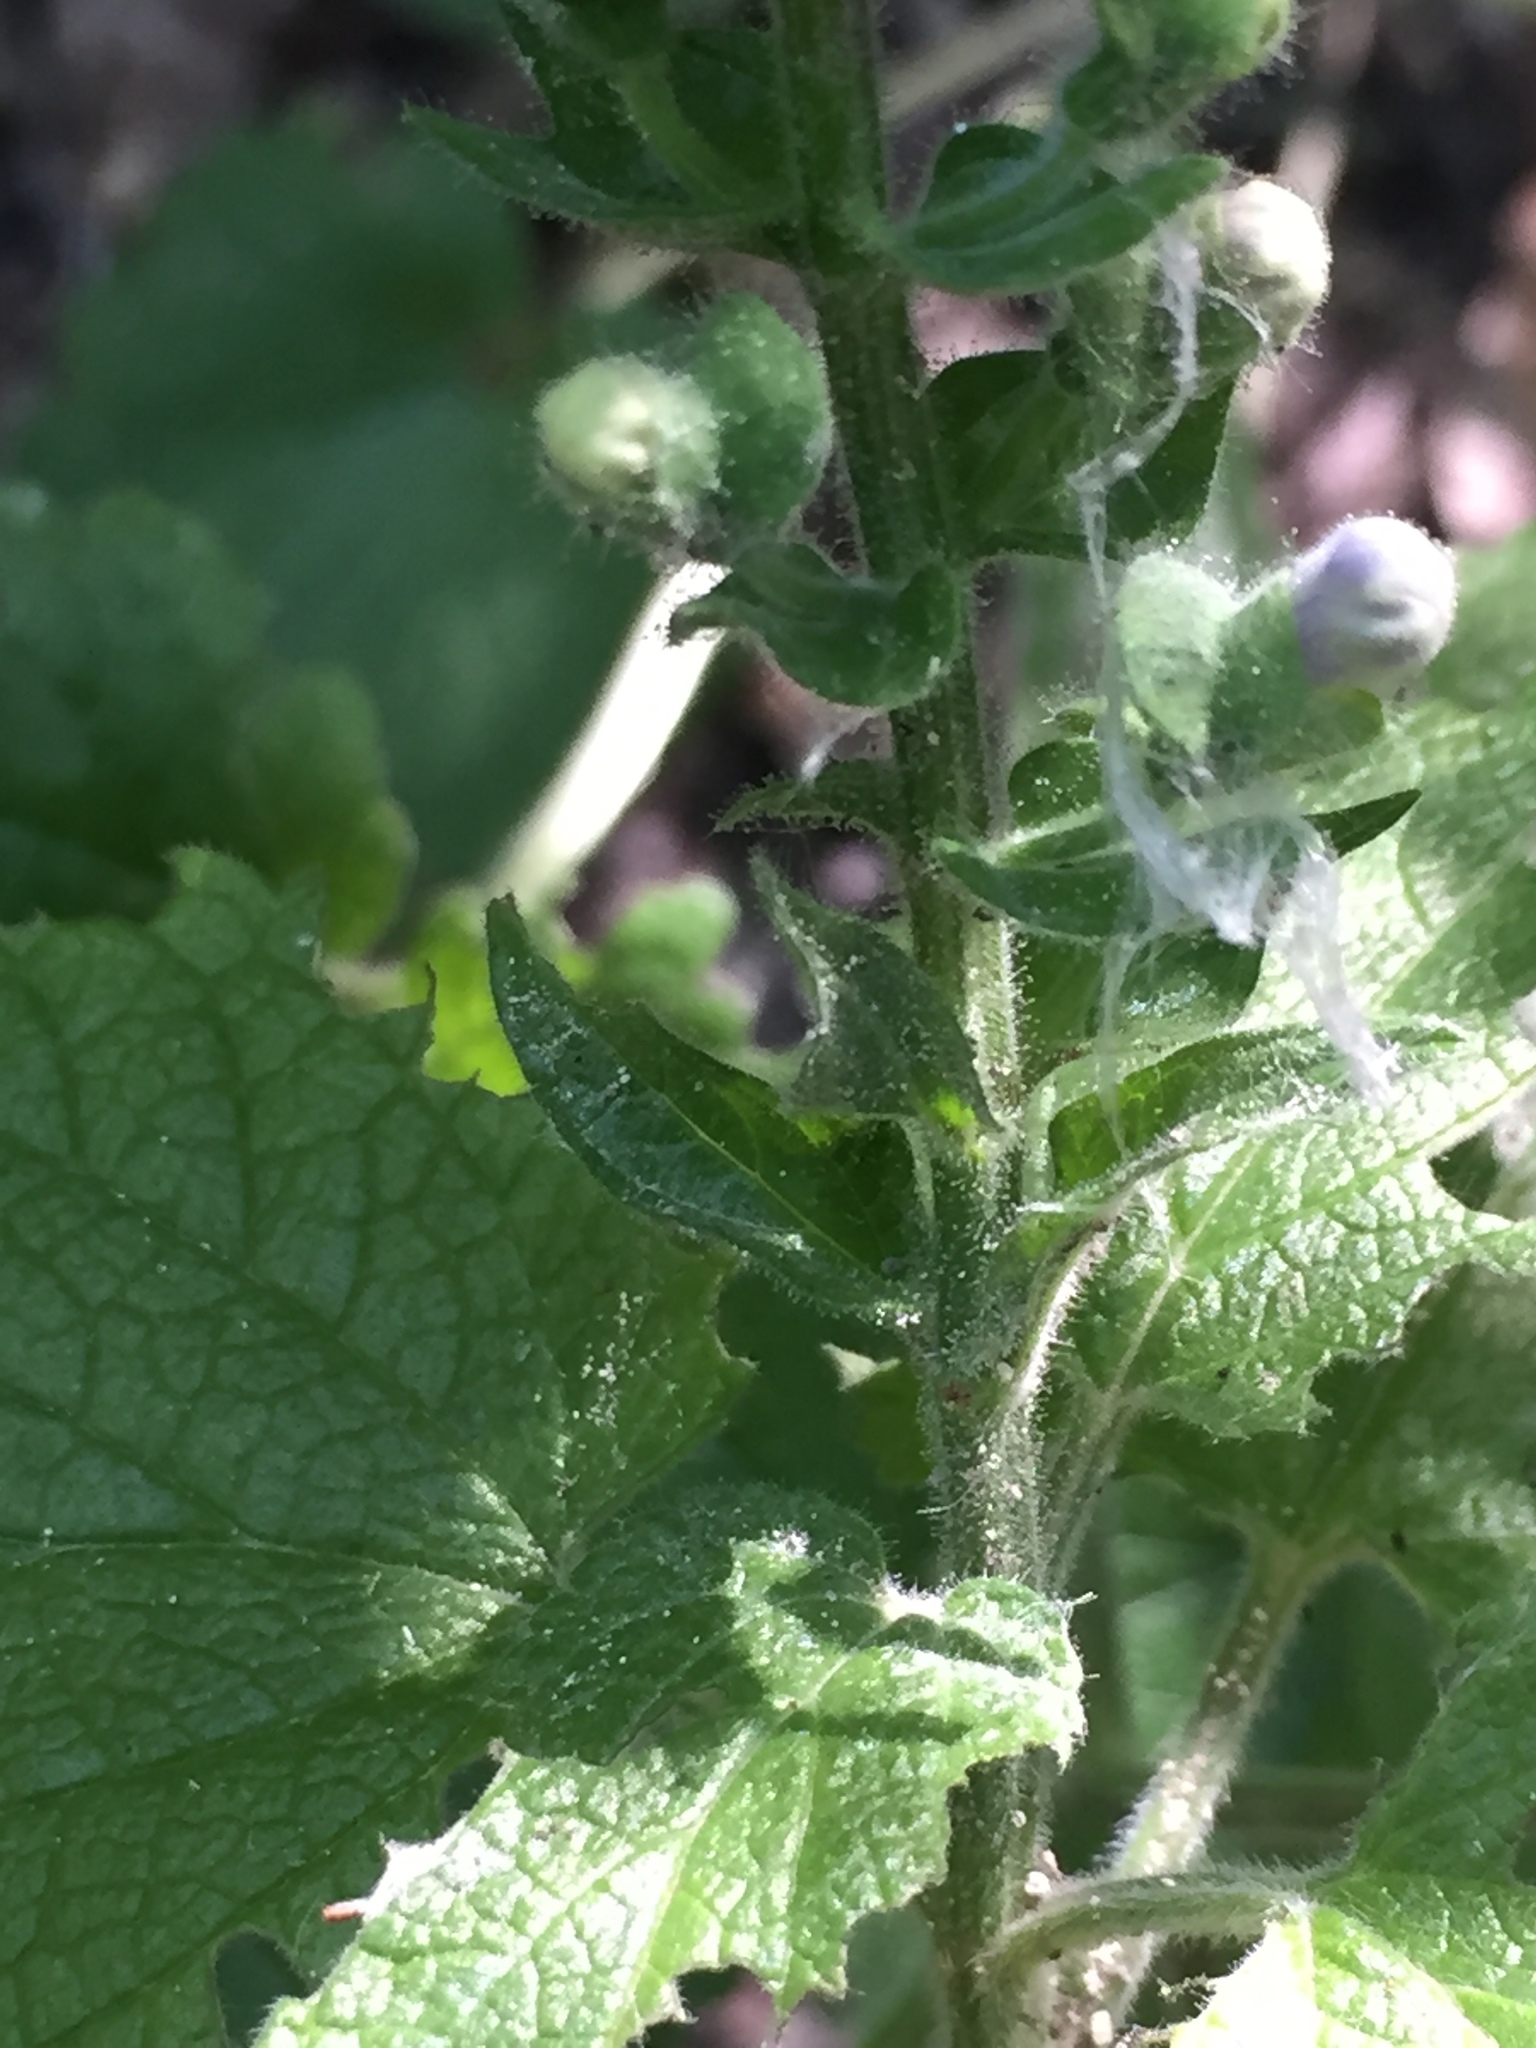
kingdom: Plantae
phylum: Tracheophyta
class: Magnoliopsida
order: Lamiales
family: Lamiaceae
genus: Scutellaria
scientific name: Scutellaria ovata
